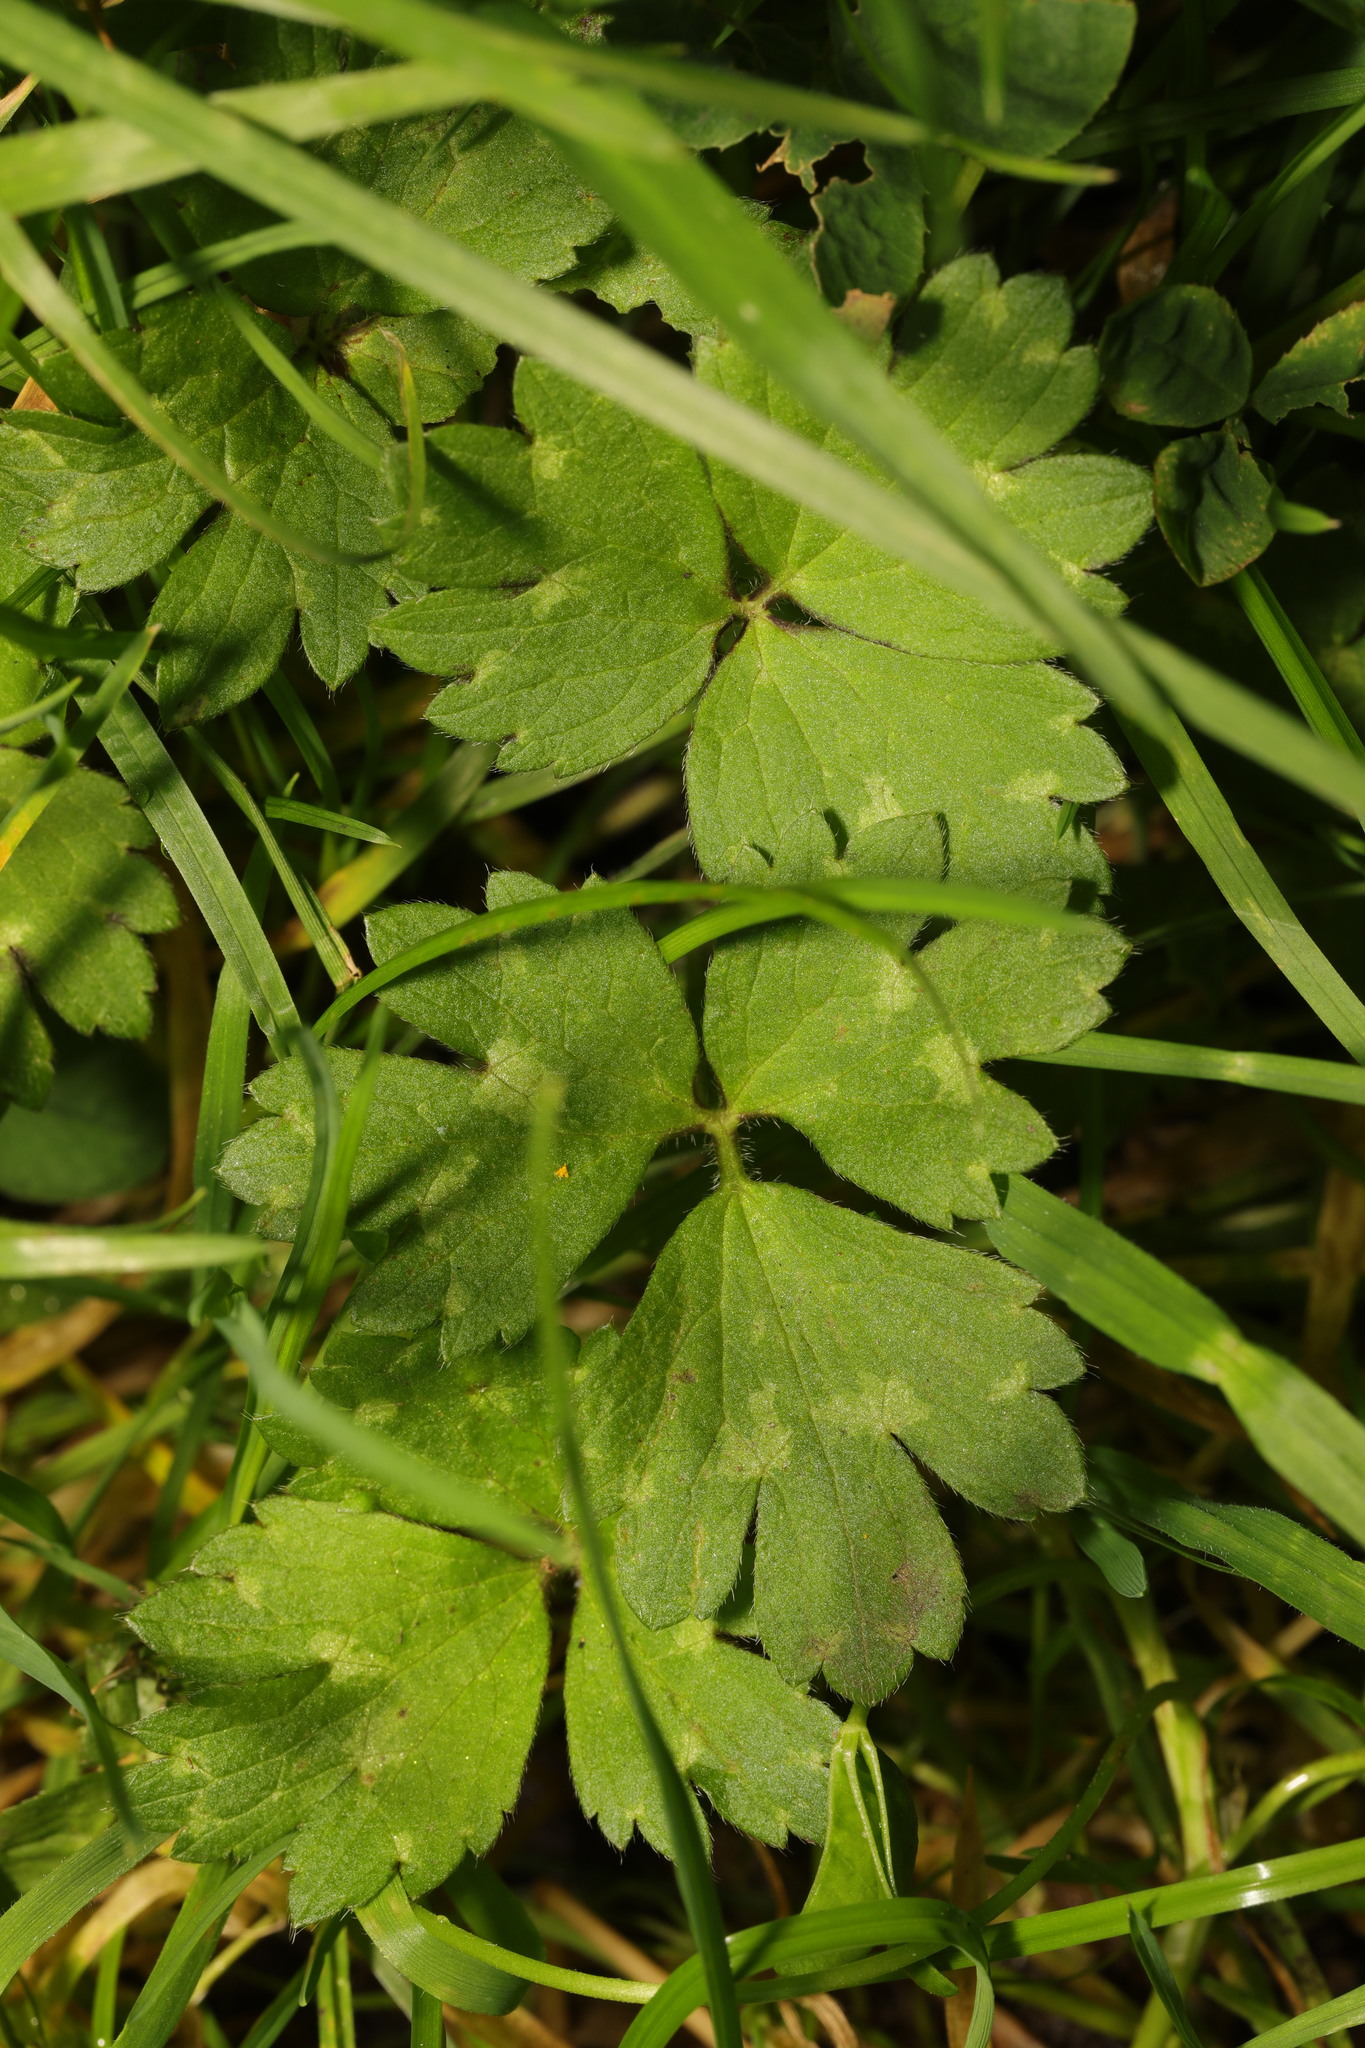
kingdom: Plantae
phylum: Tracheophyta
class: Magnoliopsida
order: Ranunculales
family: Ranunculaceae
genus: Ranunculus
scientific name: Ranunculus repens
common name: Creeping buttercup
